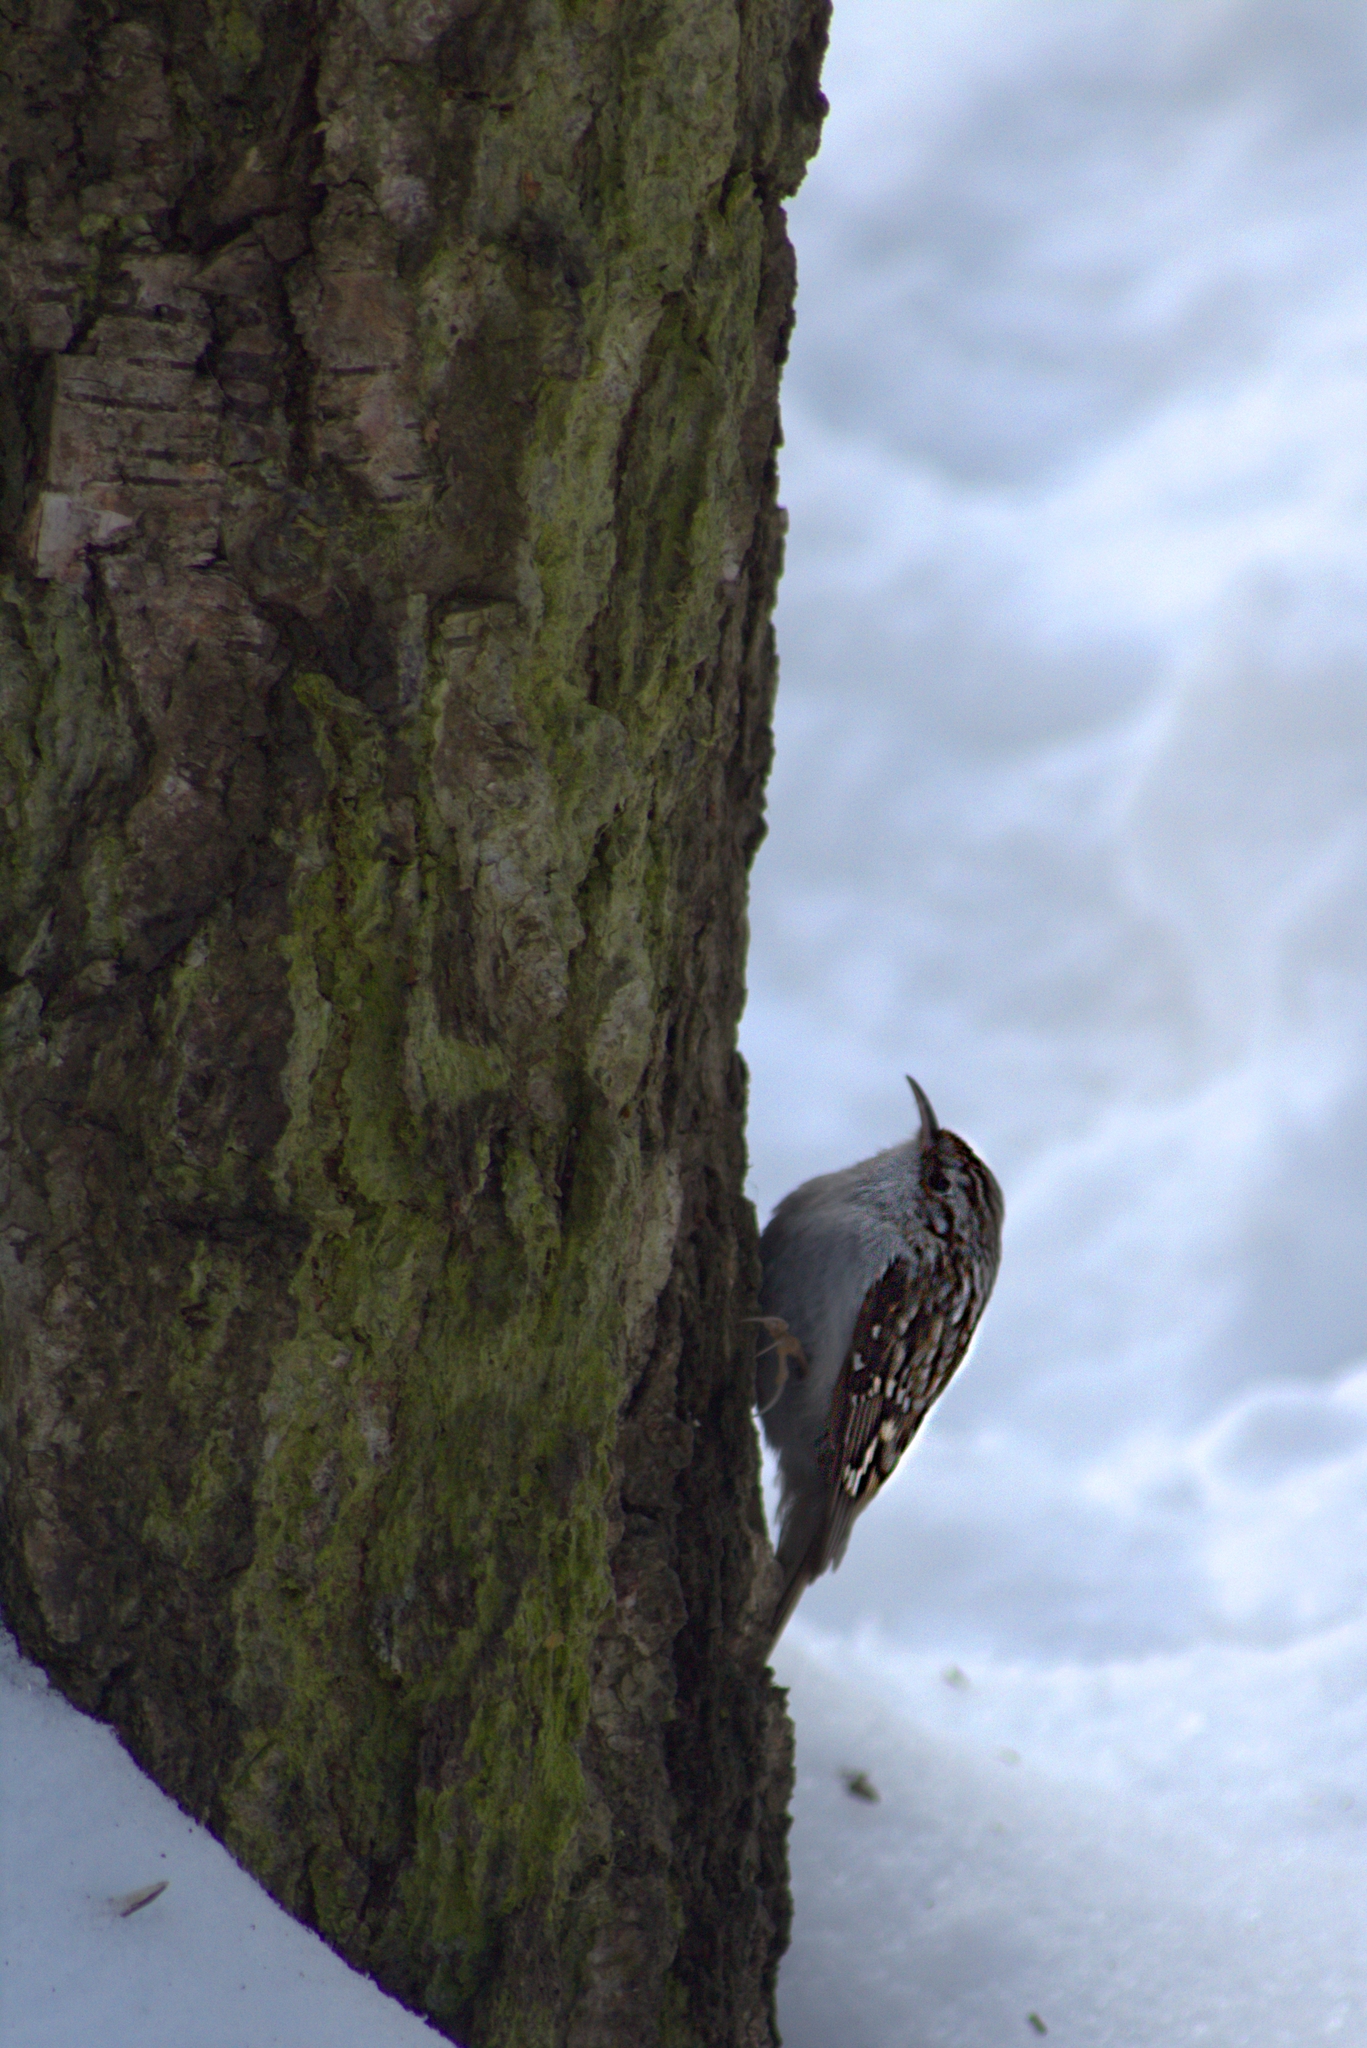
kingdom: Animalia
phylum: Chordata
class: Aves
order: Passeriformes
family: Certhiidae
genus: Certhia
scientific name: Certhia familiaris
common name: Eurasian treecreeper
